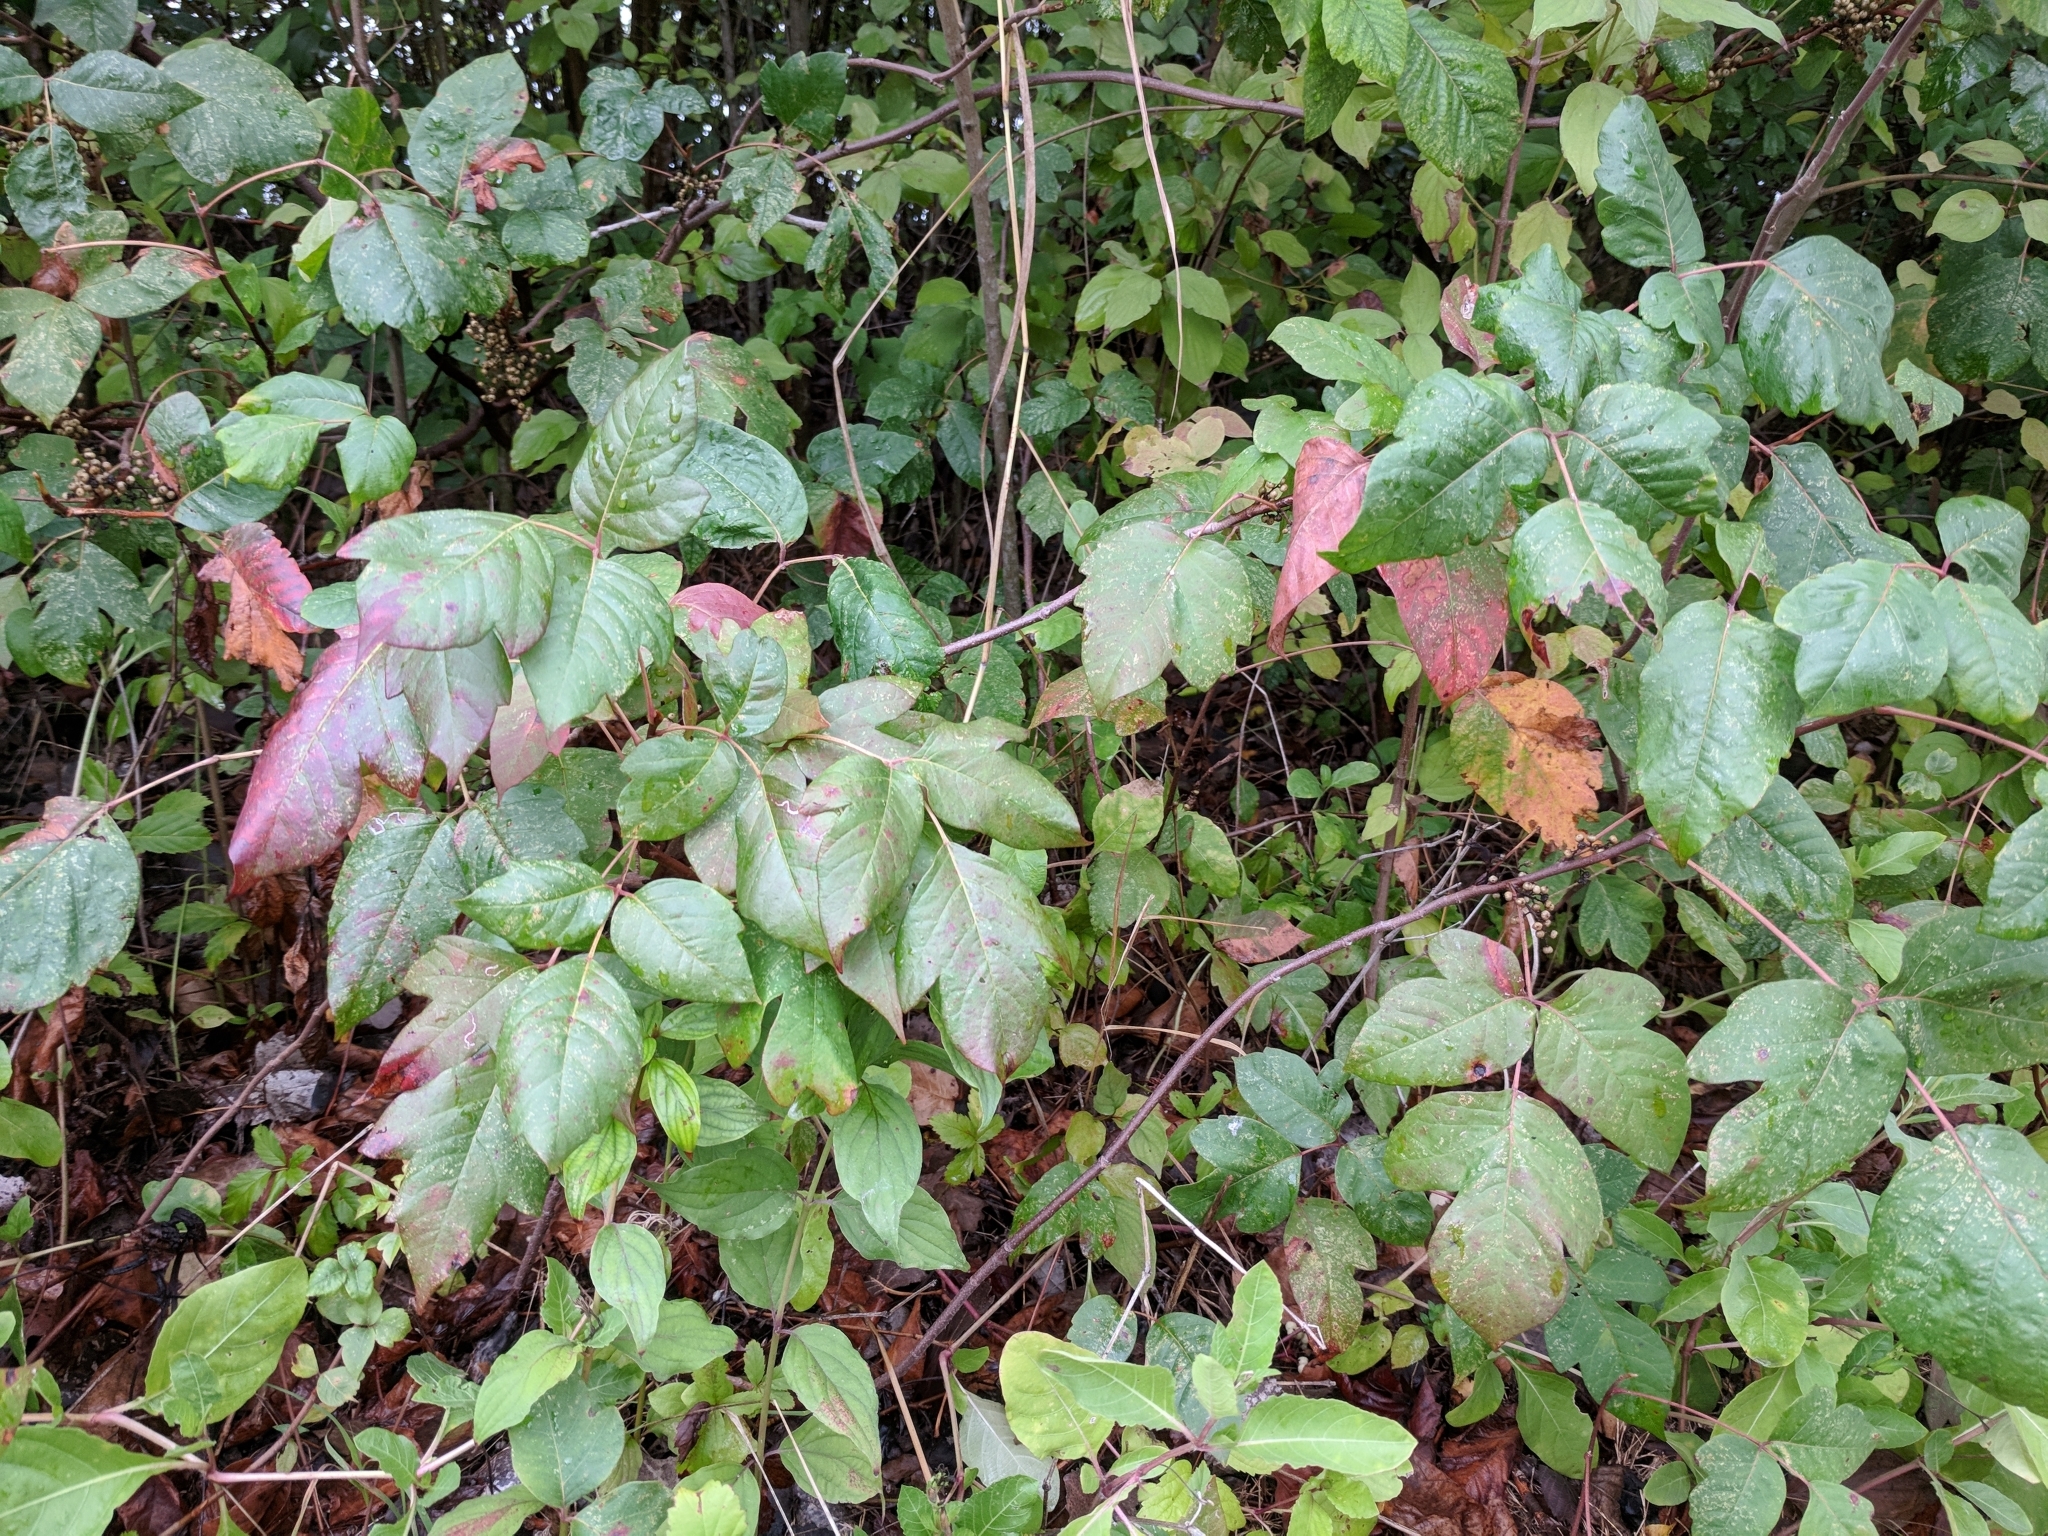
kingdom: Plantae
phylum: Tracheophyta
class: Magnoliopsida
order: Sapindales
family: Anacardiaceae
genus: Toxicodendron
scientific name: Toxicodendron radicans
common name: Poison ivy
